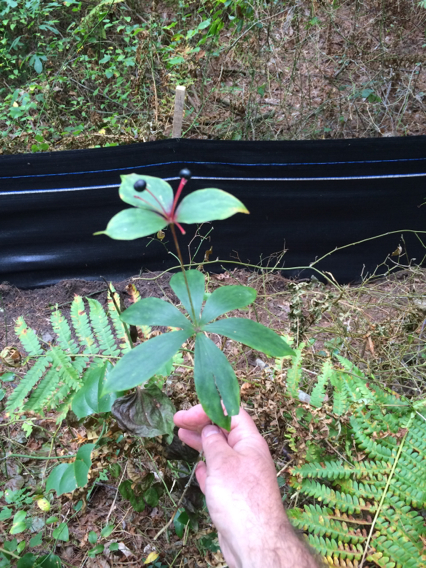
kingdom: Plantae
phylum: Tracheophyta
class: Liliopsida
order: Liliales
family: Liliaceae
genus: Medeola
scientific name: Medeola virginiana
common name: Indian cucumber-root
